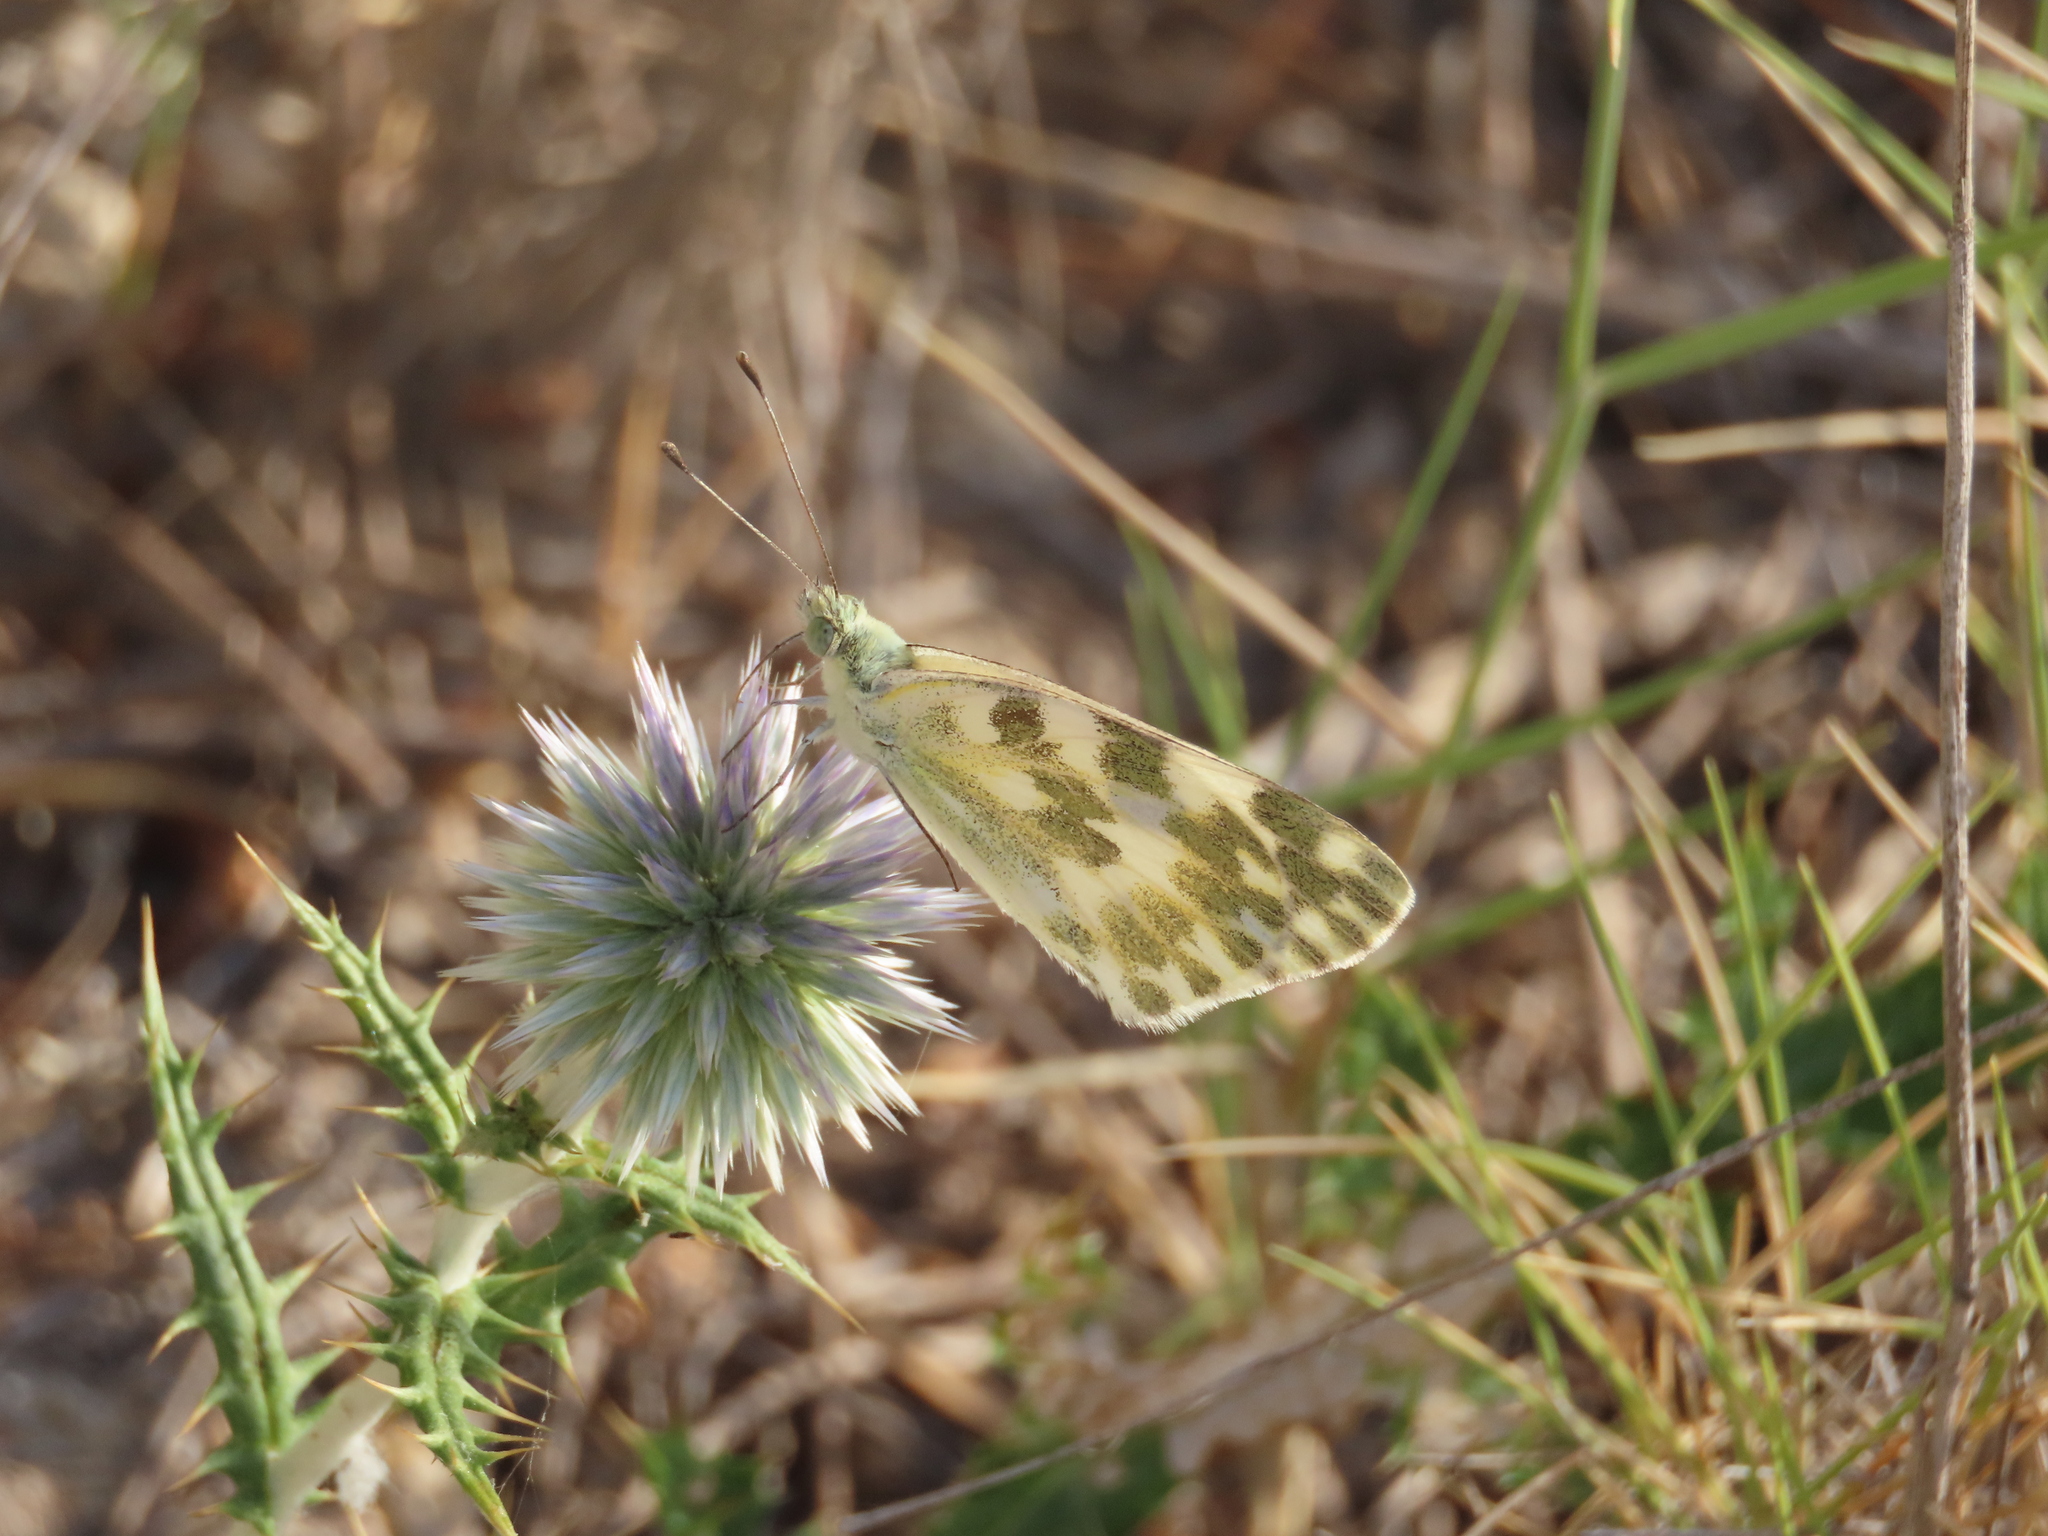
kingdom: Animalia
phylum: Arthropoda
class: Insecta
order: Lepidoptera
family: Pieridae
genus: Pontia
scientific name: Pontia daplidice
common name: Bath white
